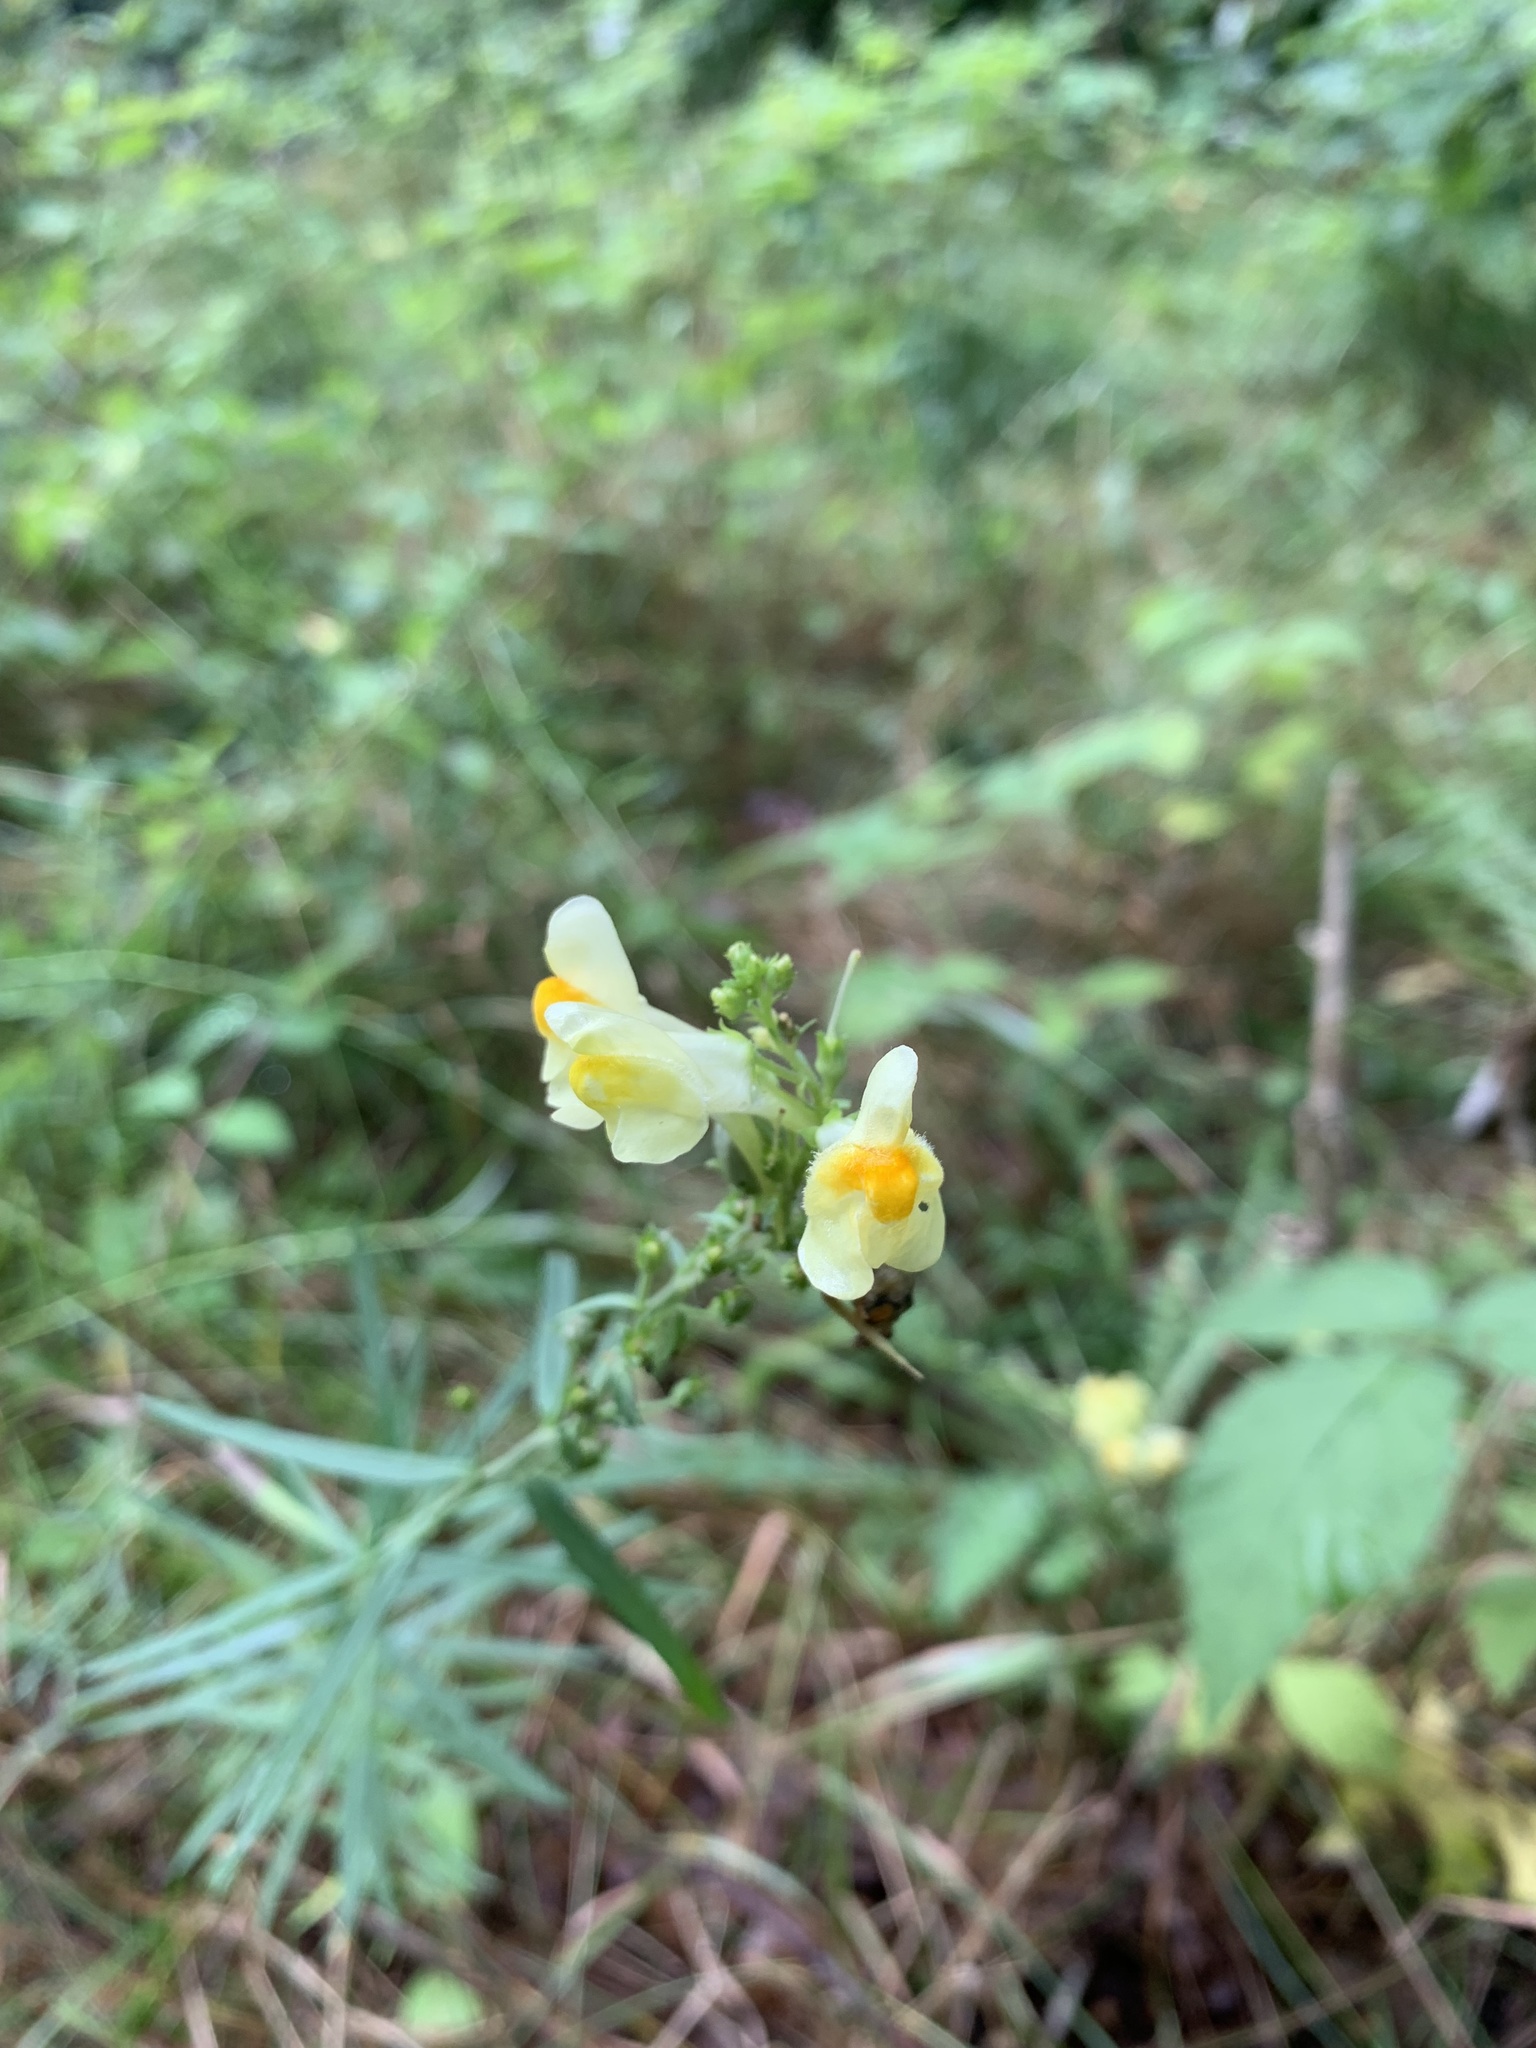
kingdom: Plantae
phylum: Tracheophyta
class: Magnoliopsida
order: Lamiales
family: Plantaginaceae
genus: Linaria
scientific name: Linaria vulgaris
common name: Butter and eggs
